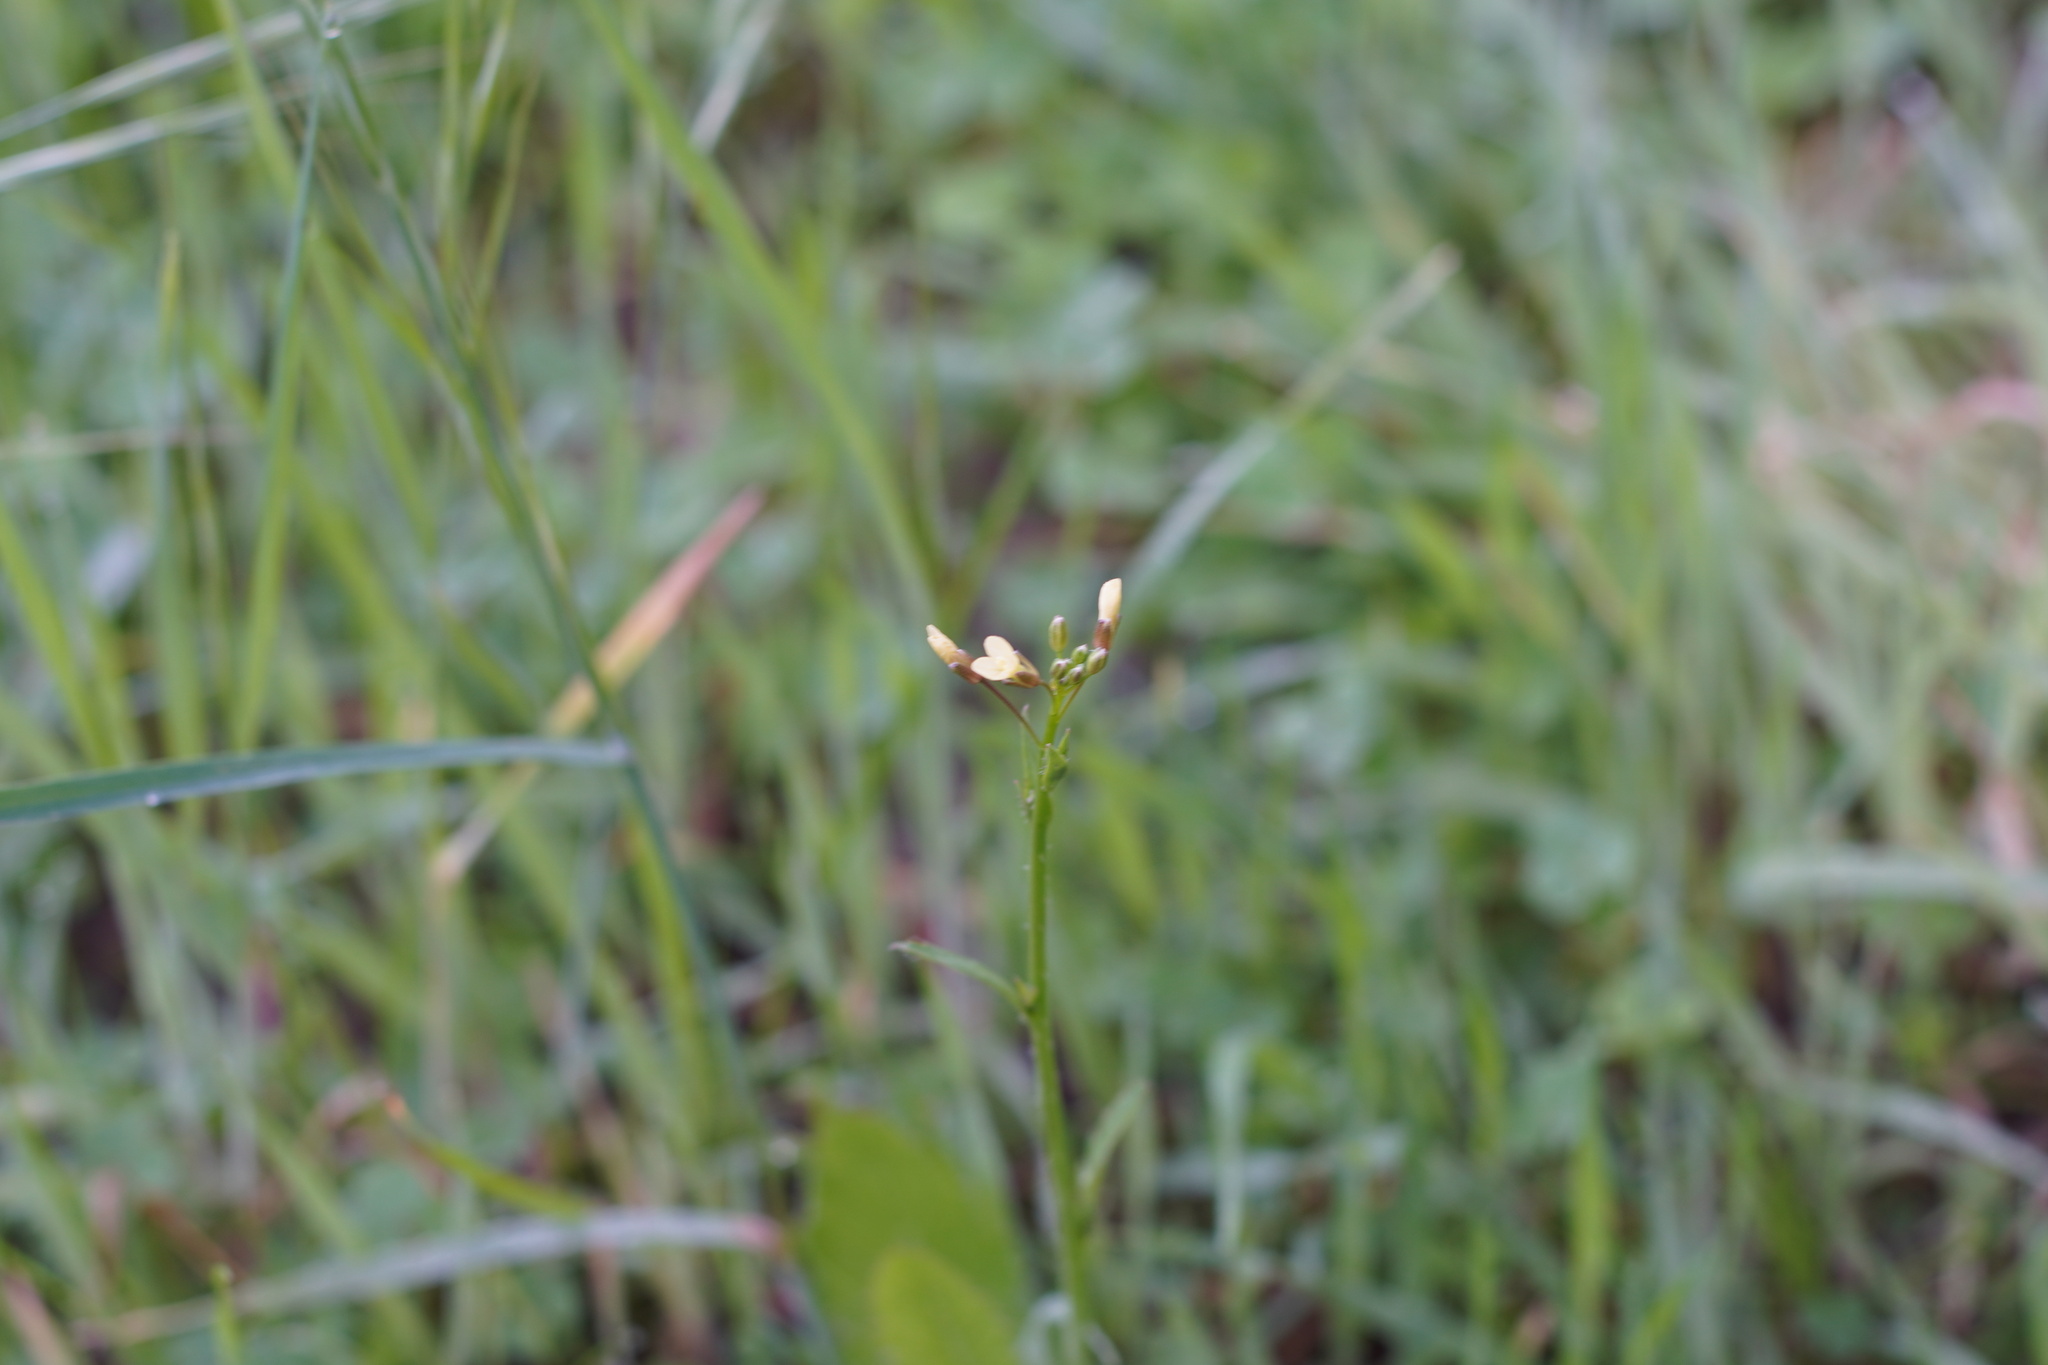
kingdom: Plantae
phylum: Tracheophyta
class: Magnoliopsida
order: Brassicales
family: Brassicaceae
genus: Brassica
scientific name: Brassica tournefortii
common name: Pale cabbage
